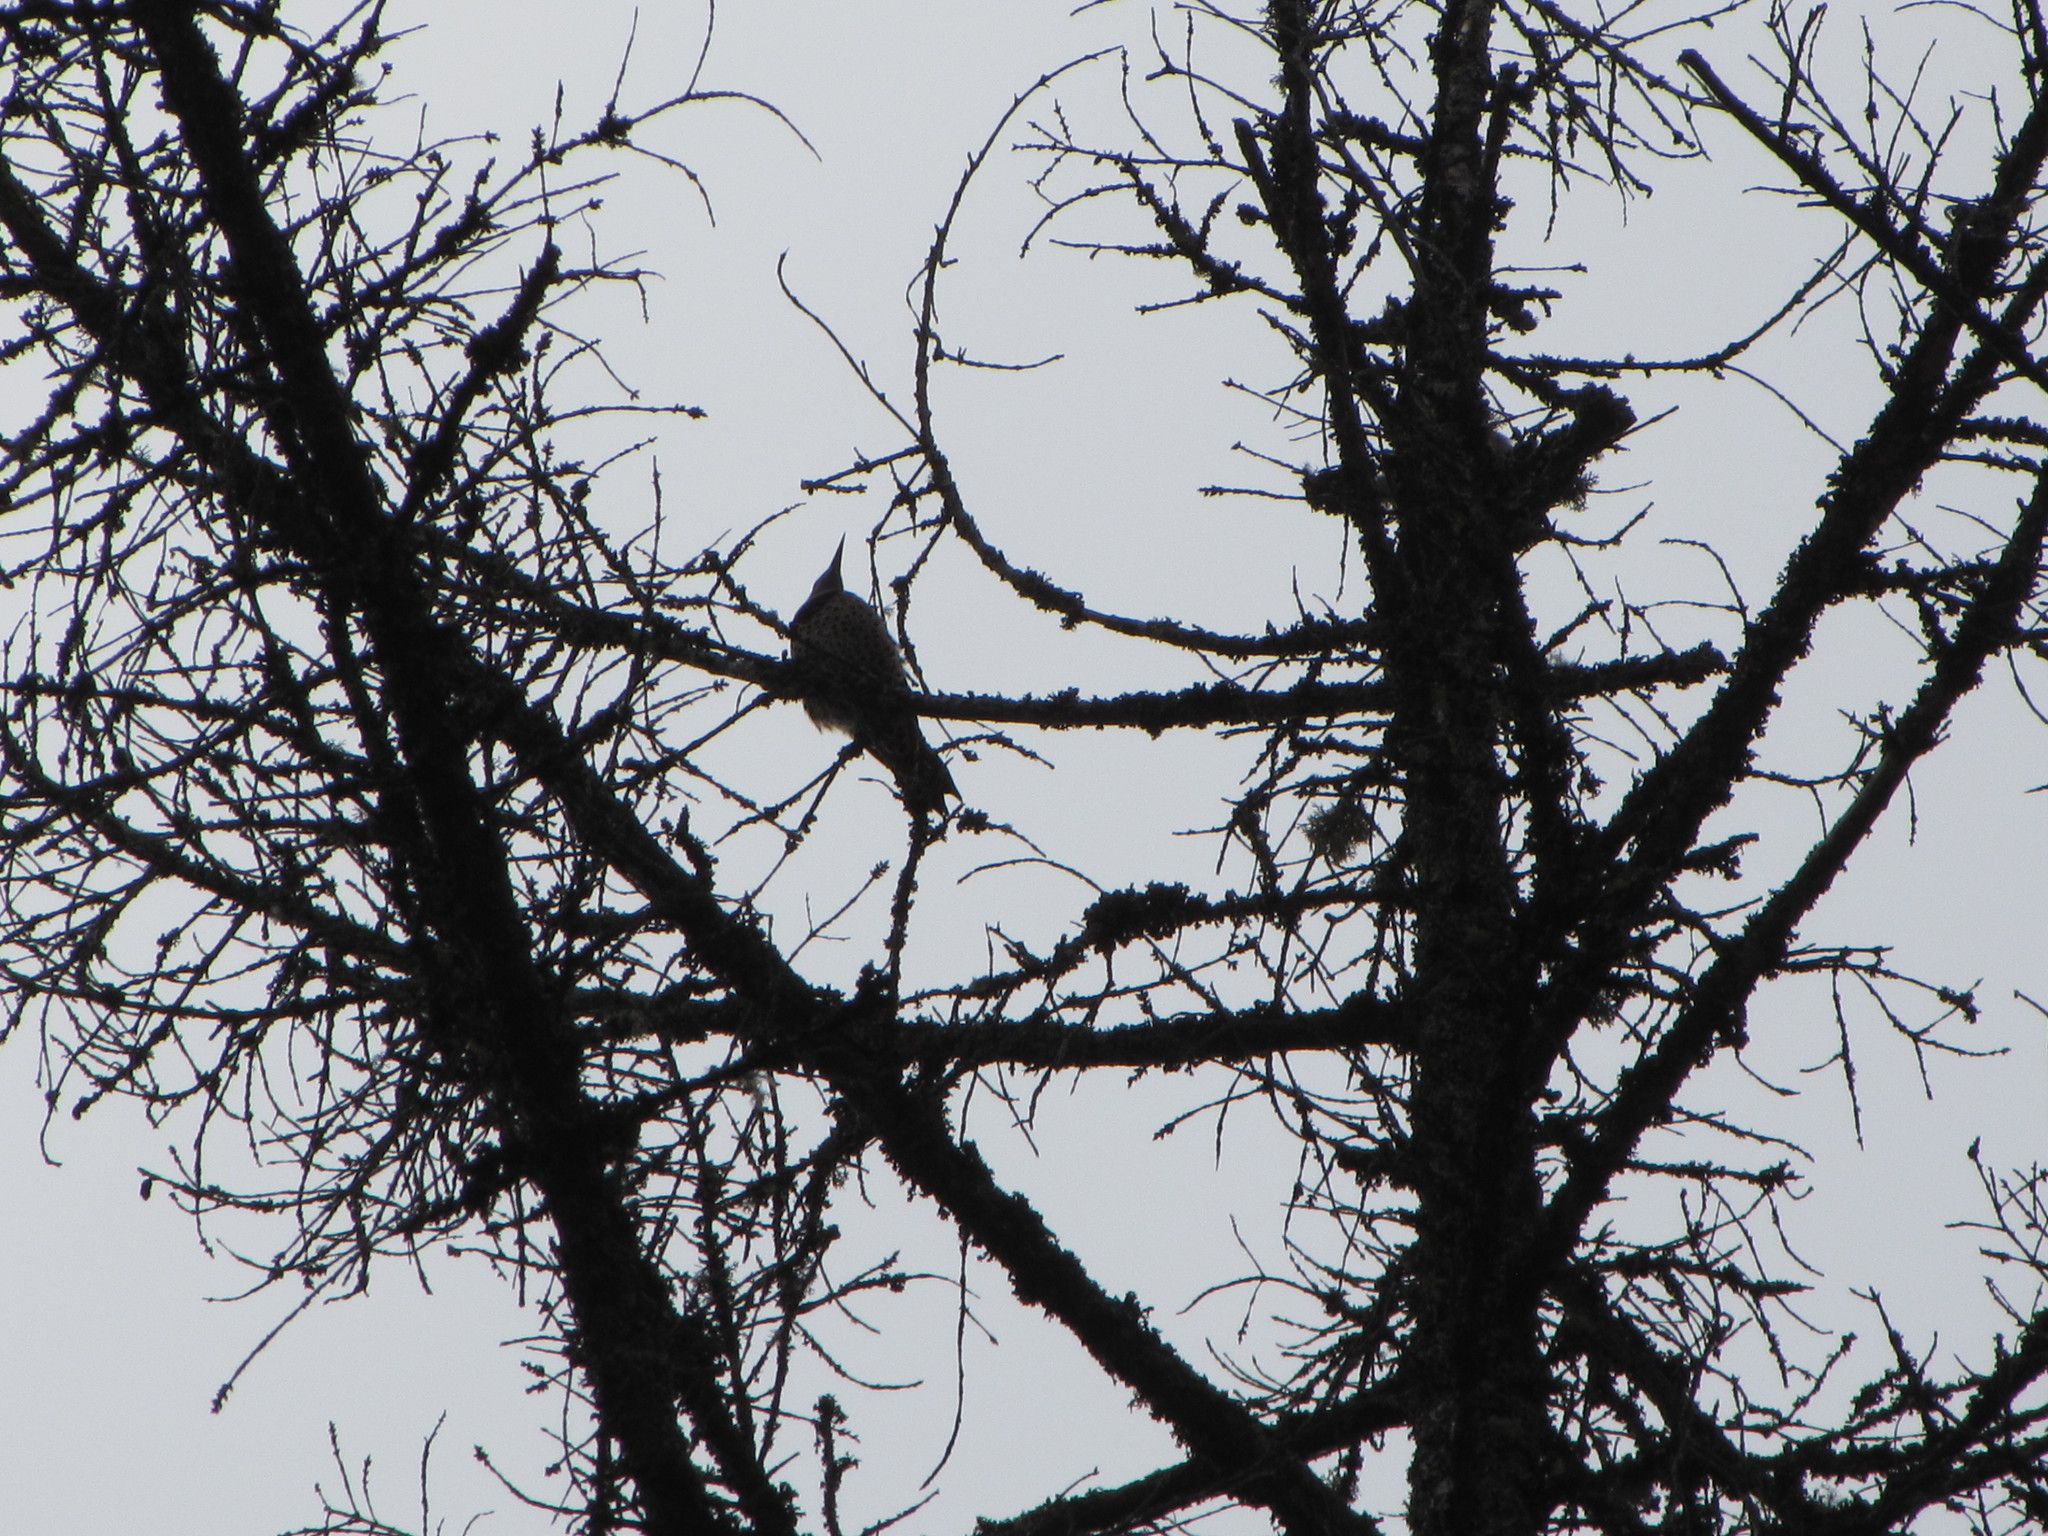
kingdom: Animalia
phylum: Chordata
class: Aves
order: Piciformes
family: Picidae
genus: Colaptes
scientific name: Colaptes auratus
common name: Northern flicker
